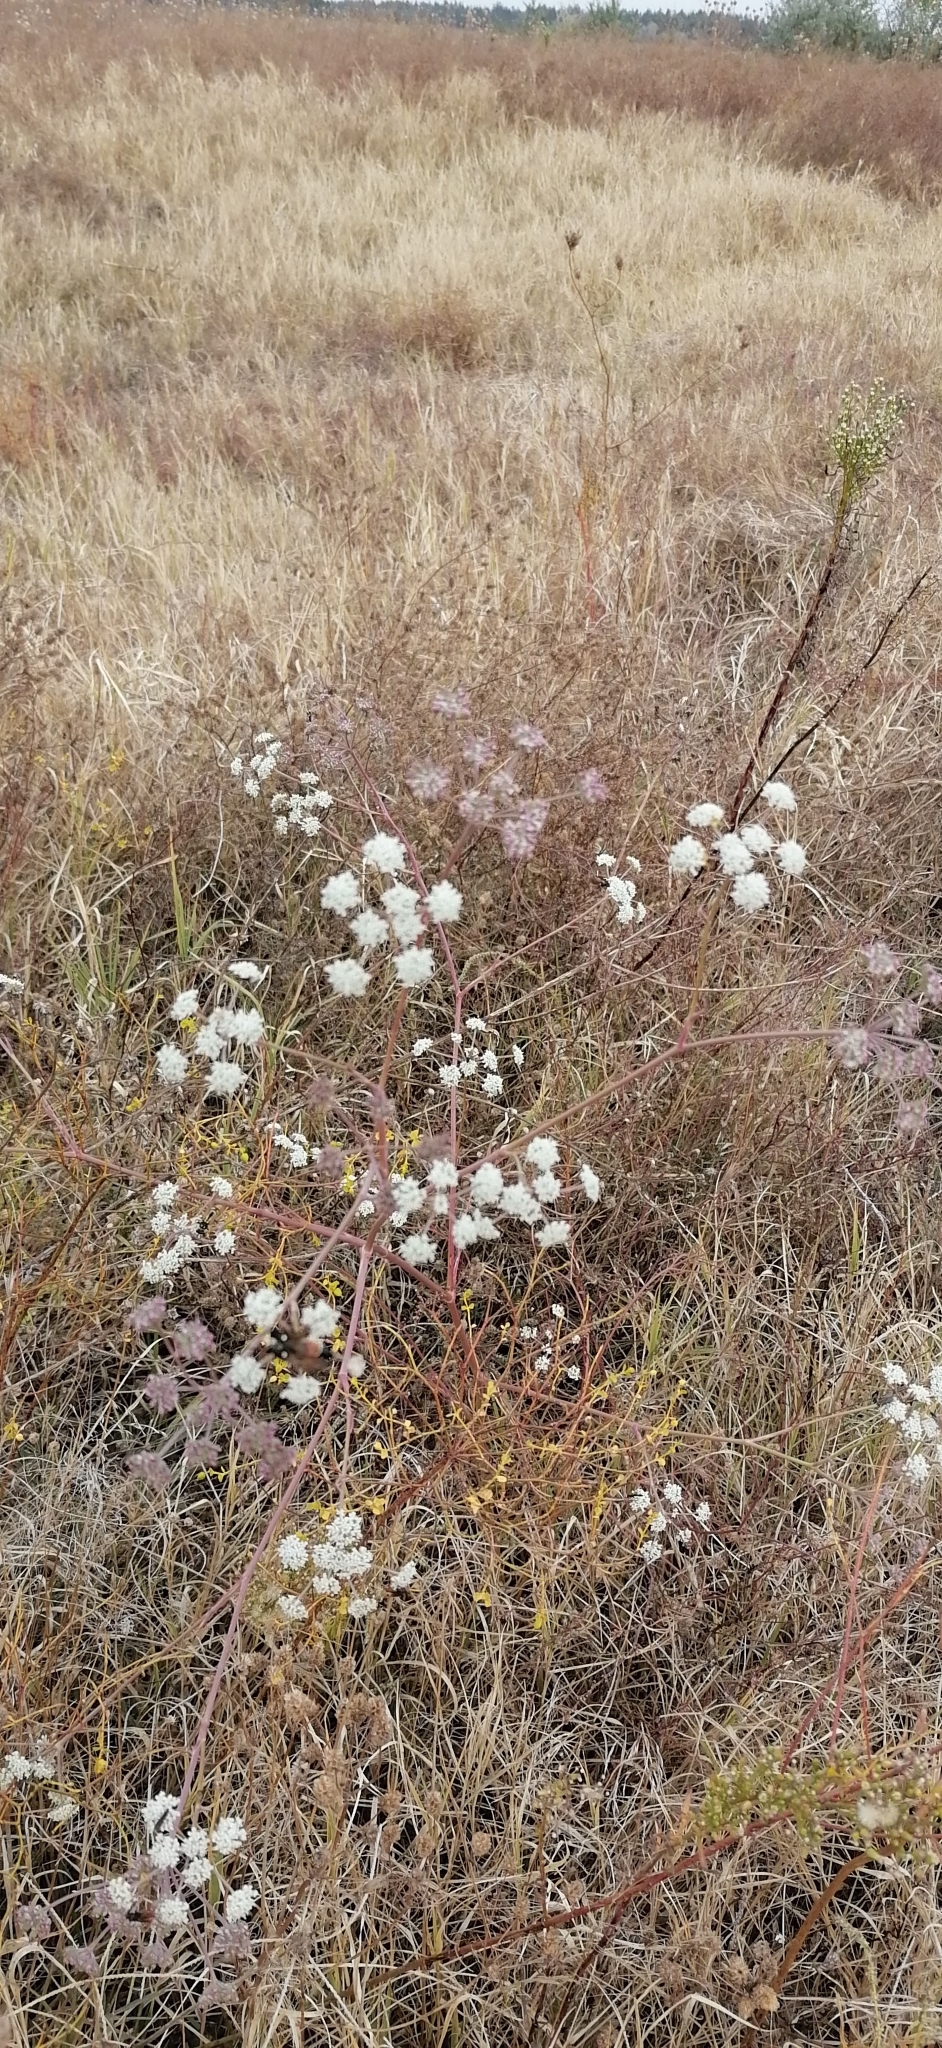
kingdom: Plantae
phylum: Tracheophyta
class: Magnoliopsida
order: Apiales
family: Apiaceae
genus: Seseli
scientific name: Seseli arenarium
